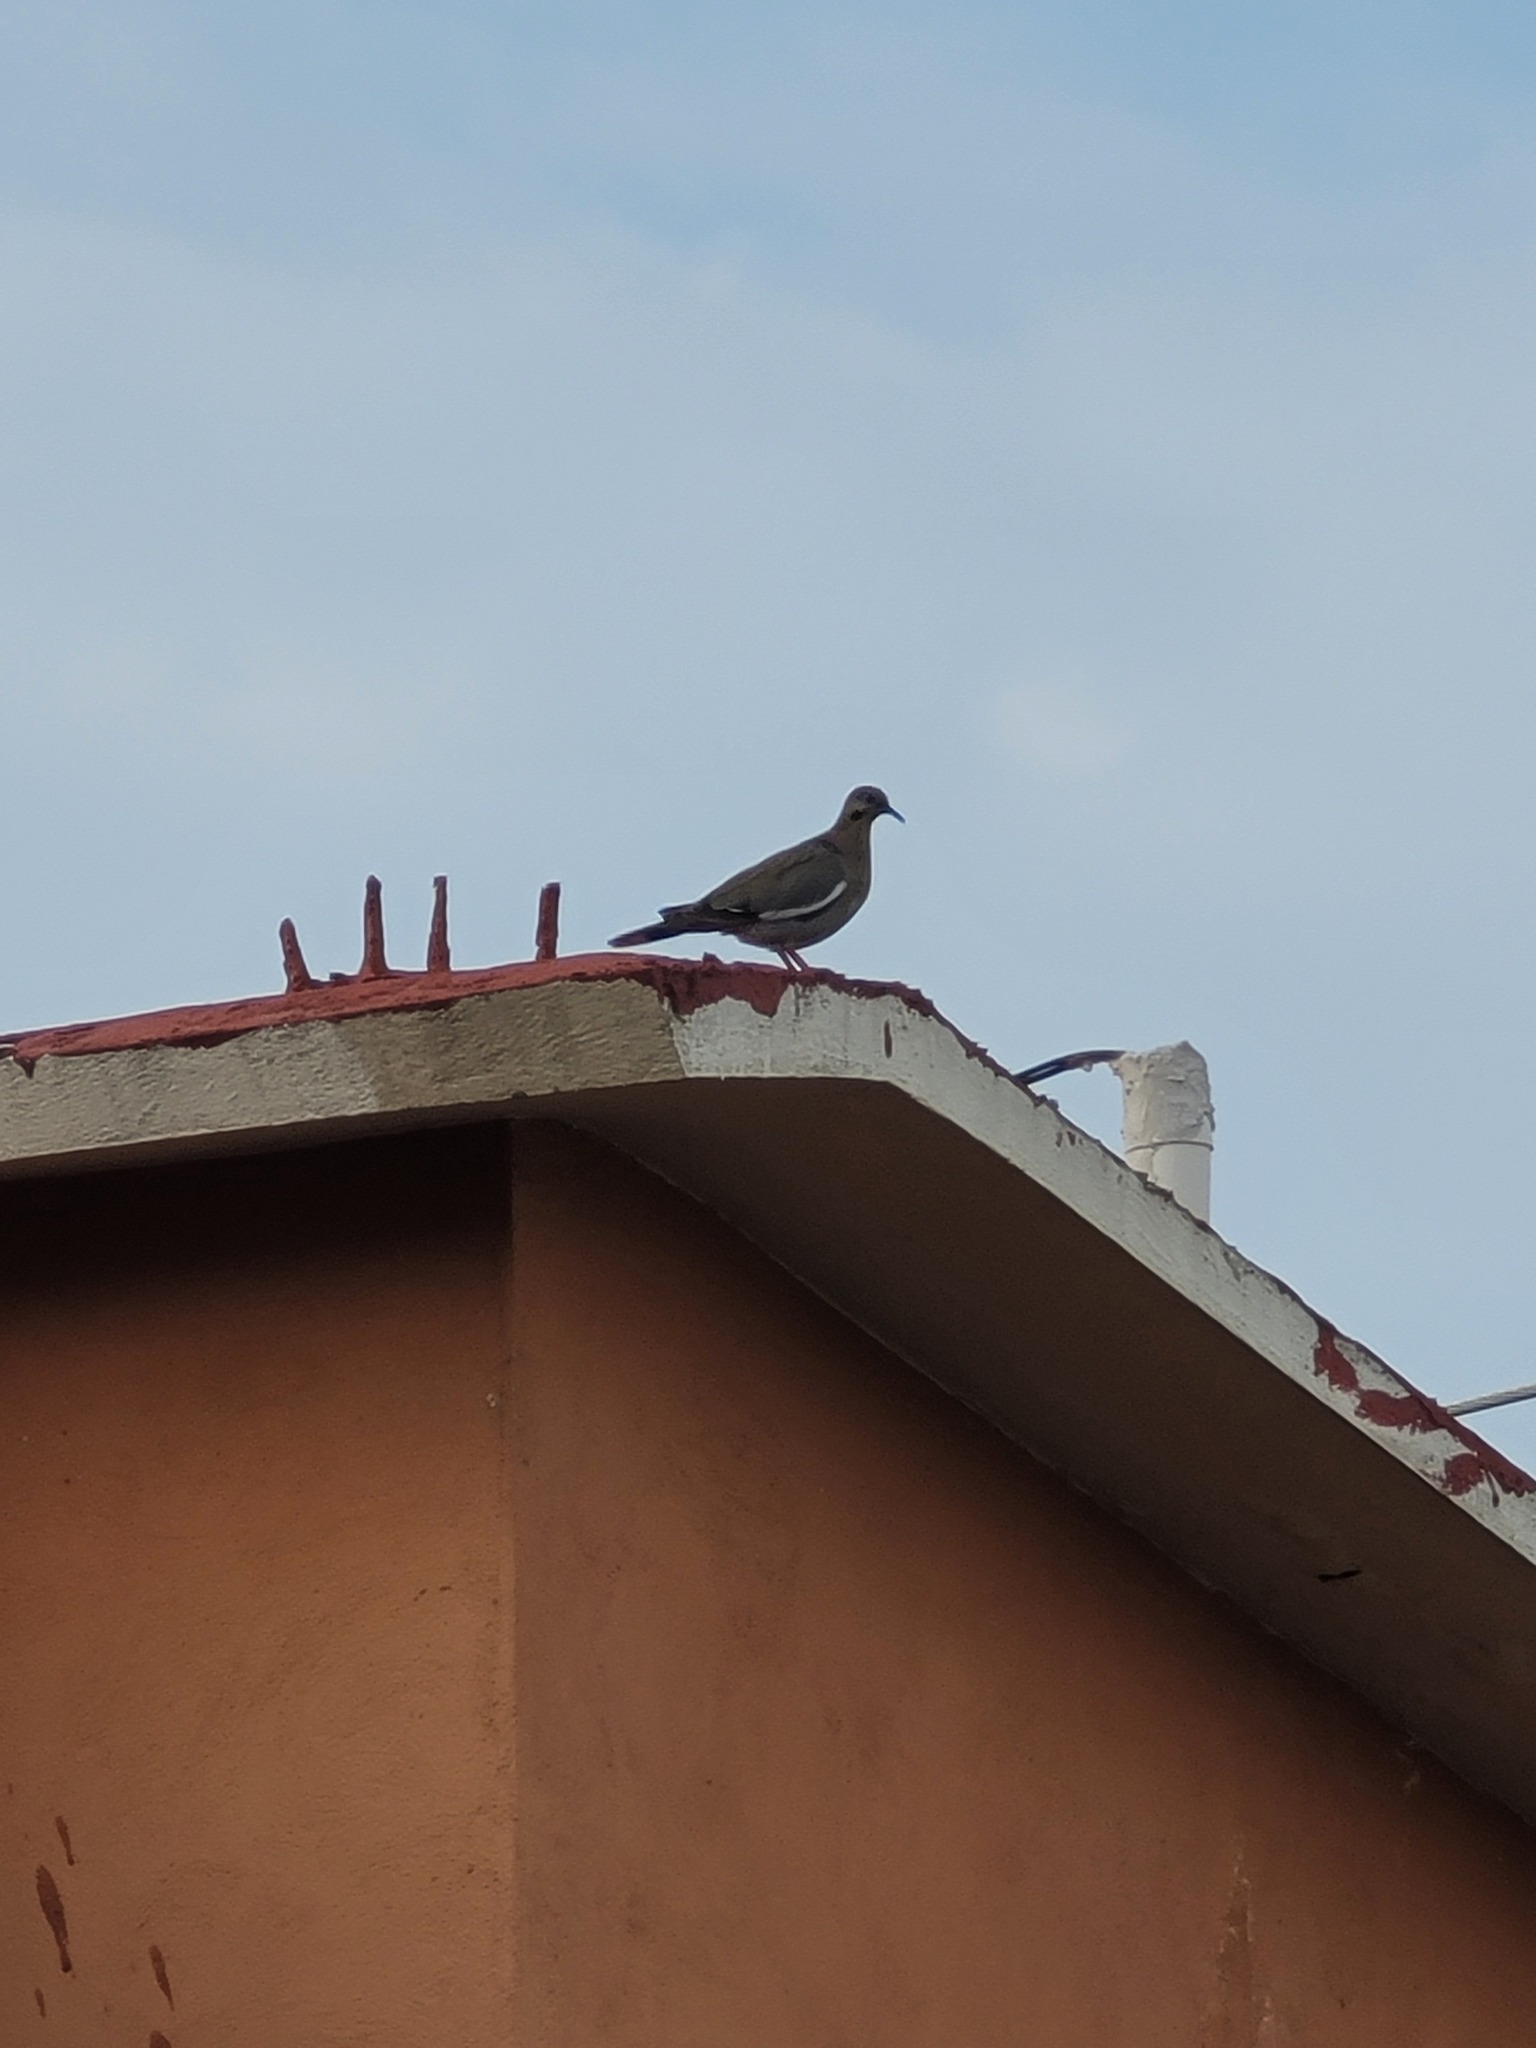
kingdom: Animalia
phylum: Chordata
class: Aves
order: Columbiformes
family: Columbidae
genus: Zenaida
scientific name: Zenaida asiatica
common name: White-winged dove
